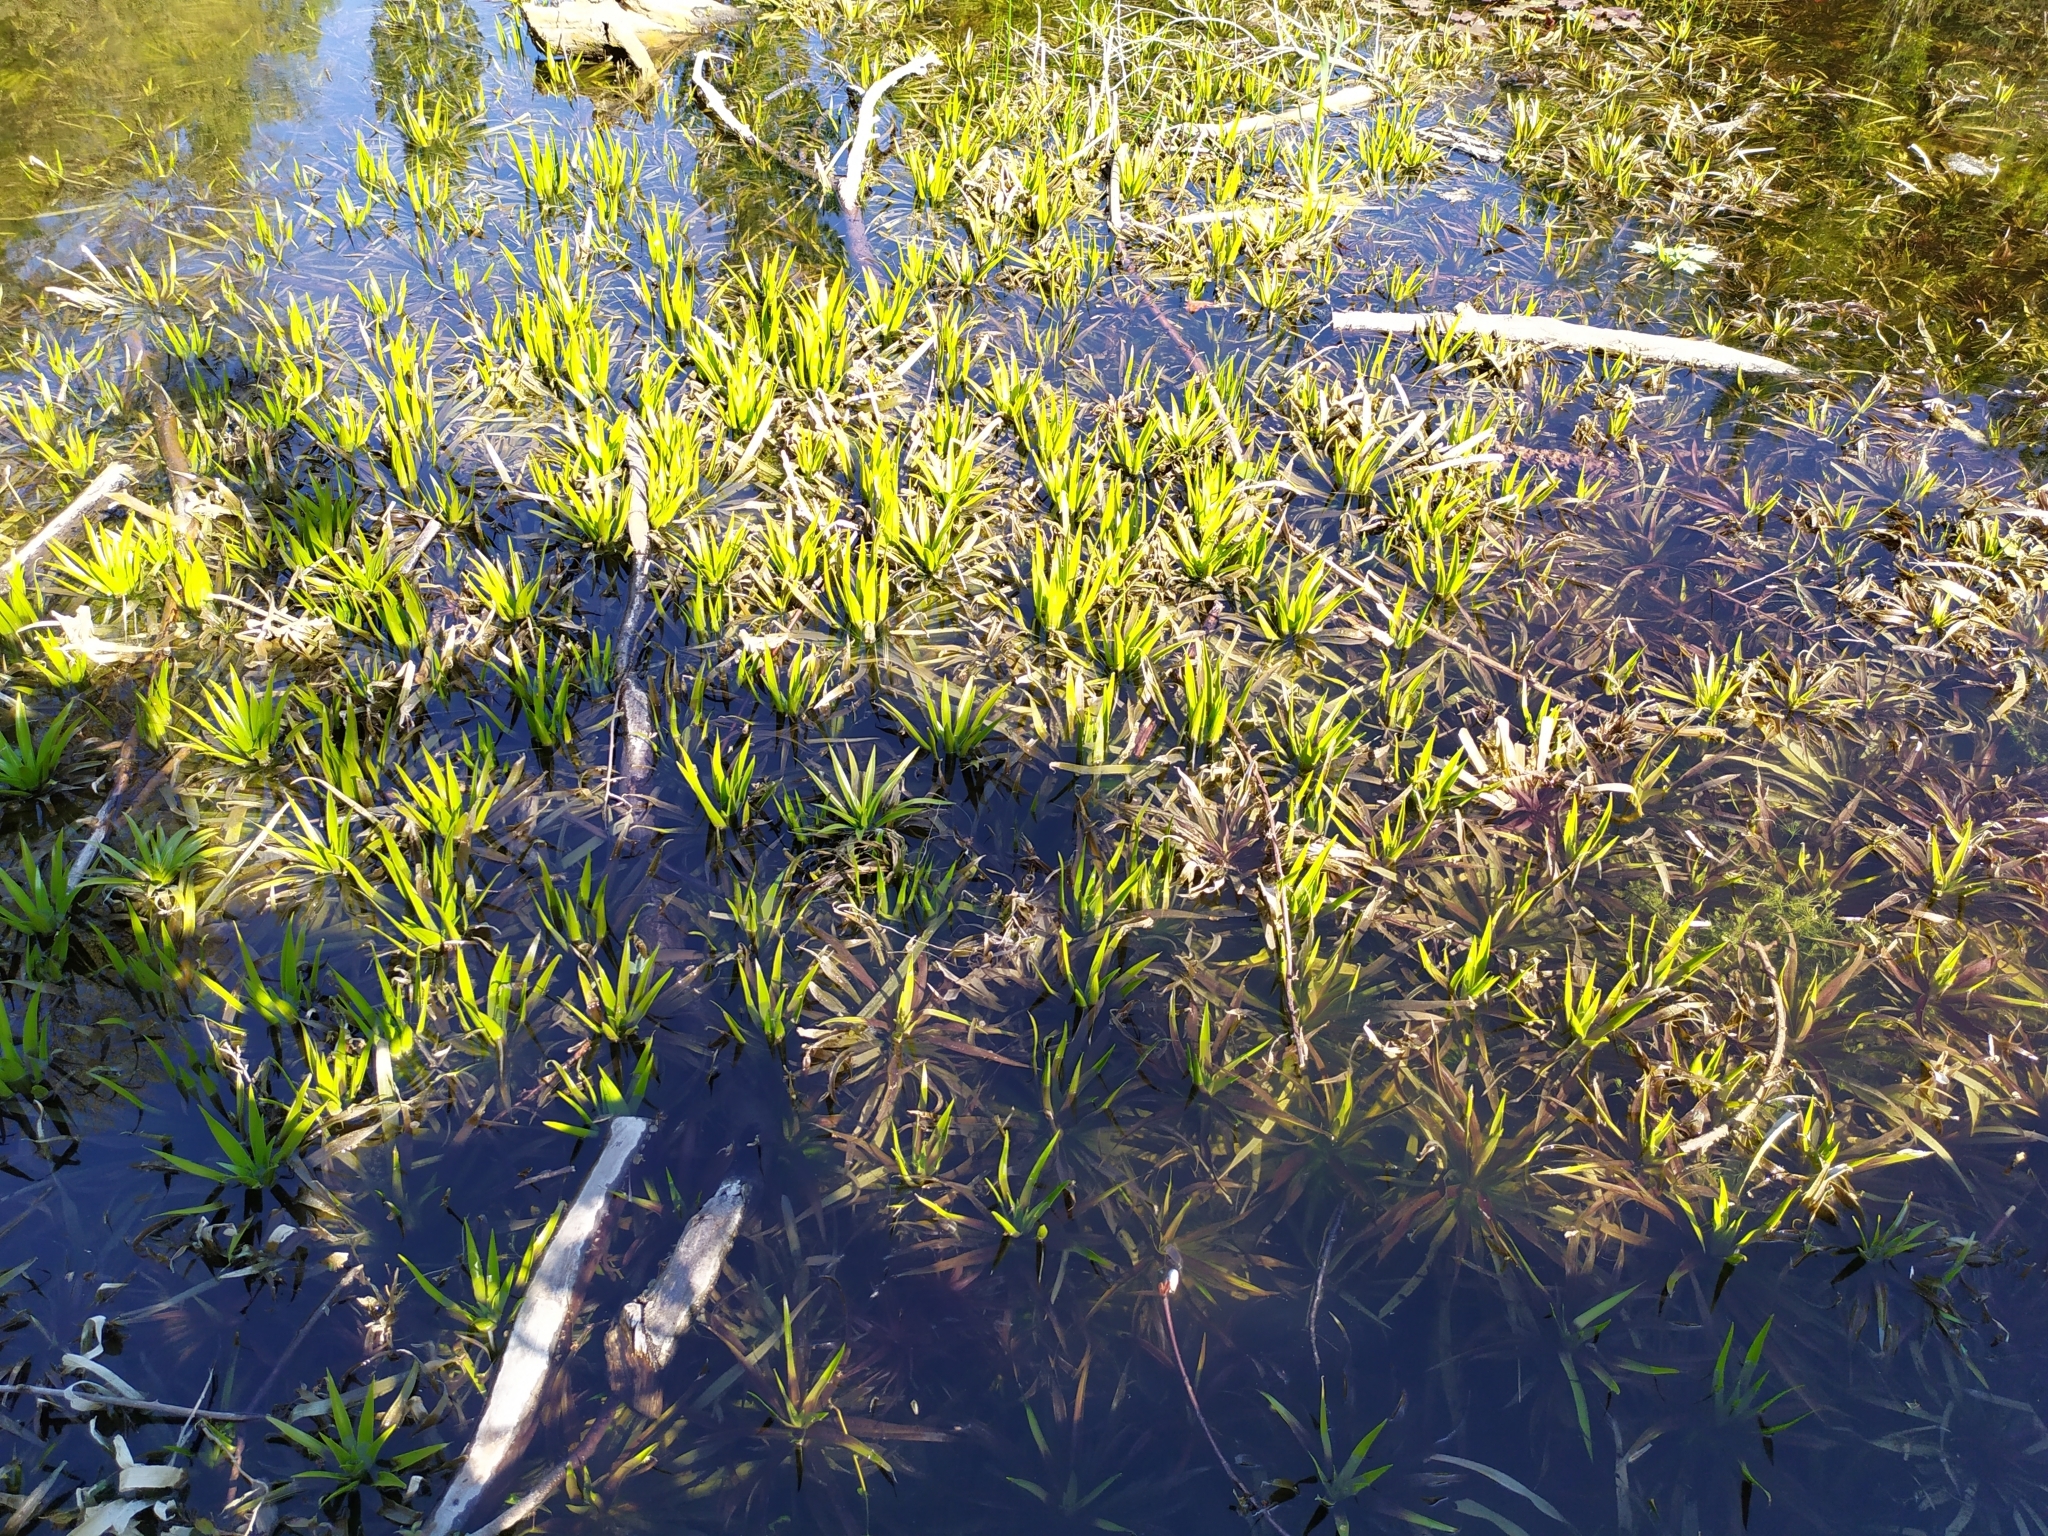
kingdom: Plantae
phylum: Tracheophyta
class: Liliopsida
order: Alismatales
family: Hydrocharitaceae
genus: Stratiotes
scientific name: Stratiotes aloides
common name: Water-soldier
